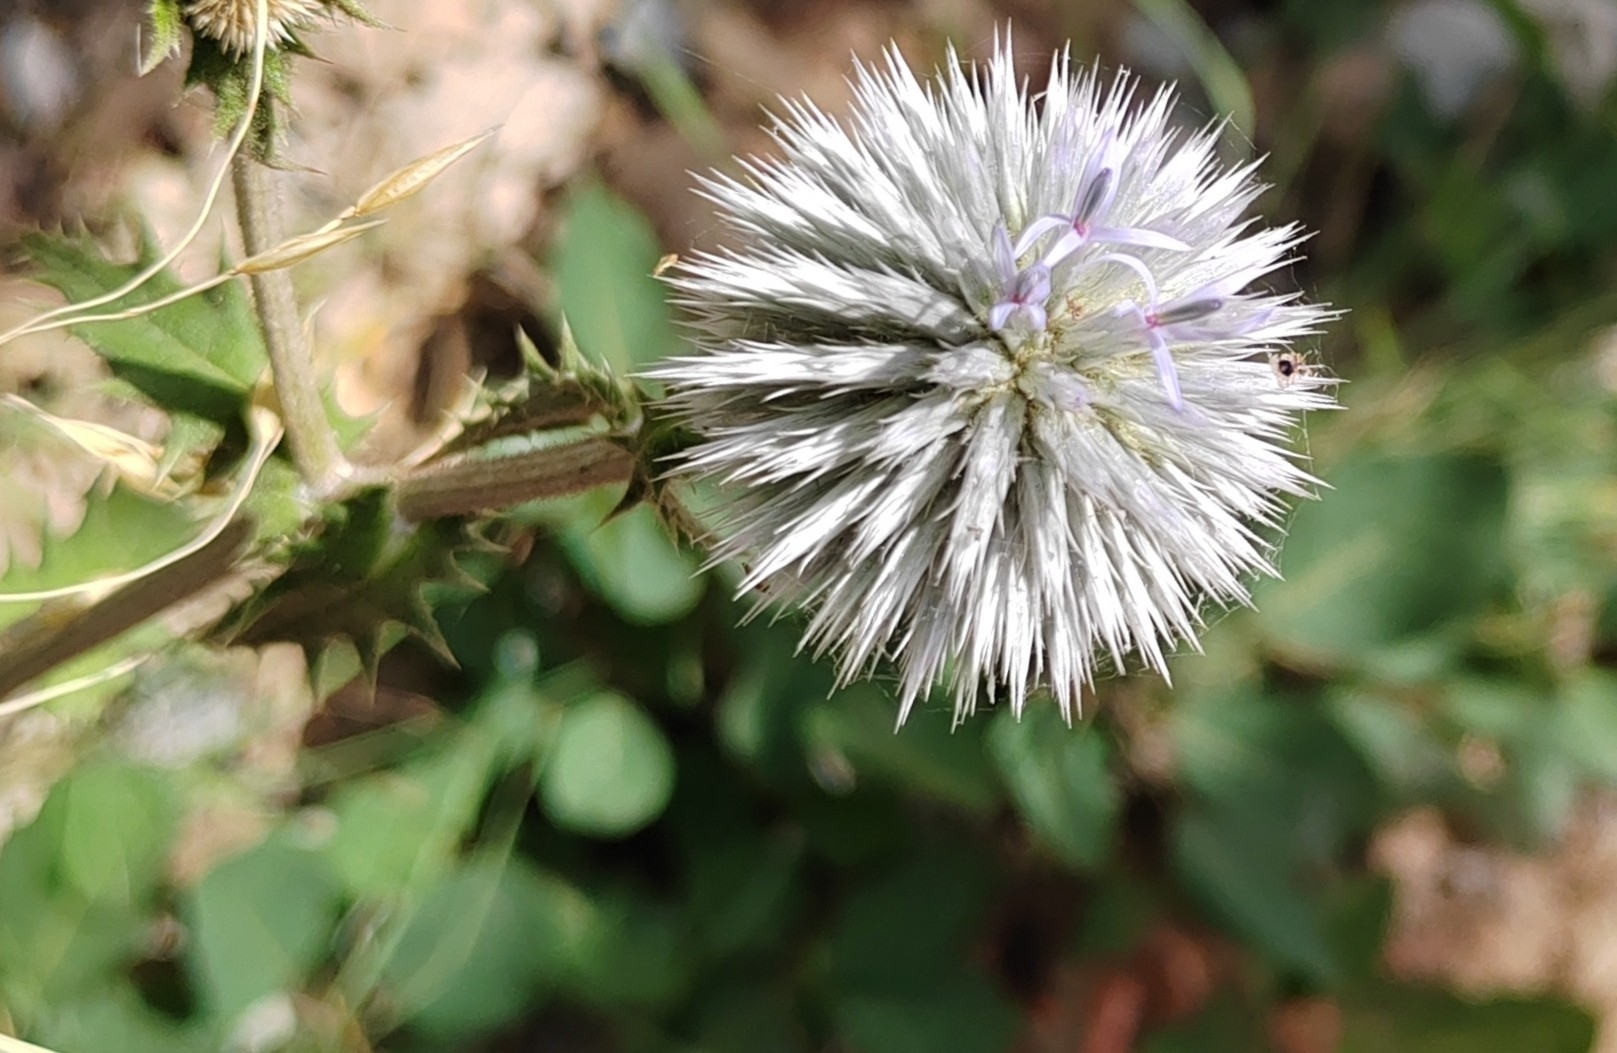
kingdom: Plantae
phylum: Tracheophyta
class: Magnoliopsida
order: Asterales
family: Asteraceae
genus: Echinops
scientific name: Echinops sphaerocephalus
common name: Glandular globe-thistle
